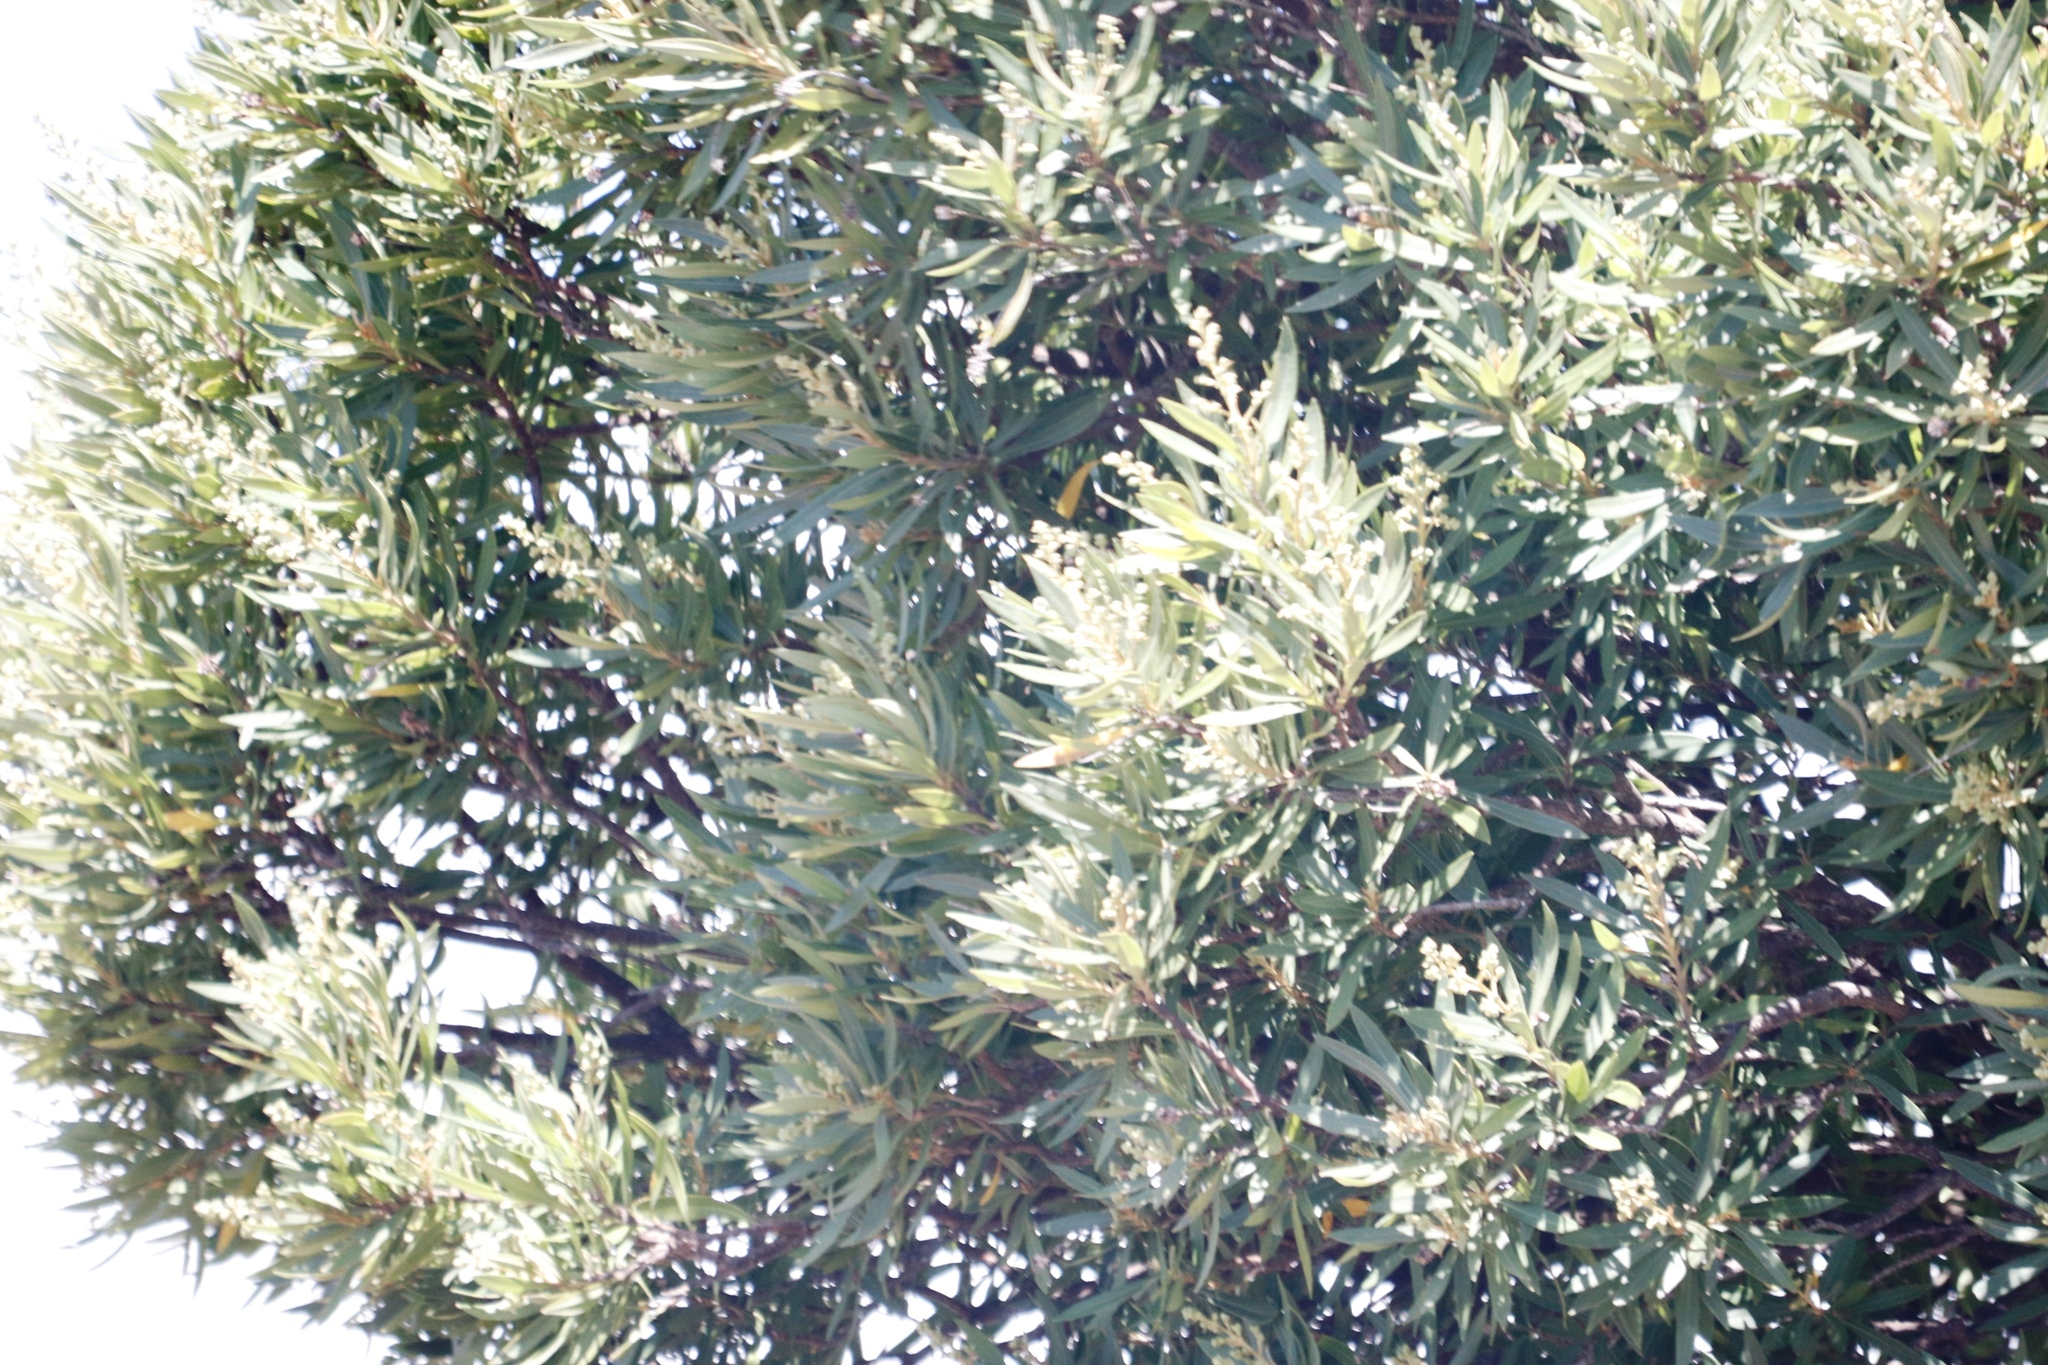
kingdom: Plantae
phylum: Tracheophyta
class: Magnoliopsida
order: Asterales
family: Asteraceae
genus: Brachylaena
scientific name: Brachylaena neriifolia
